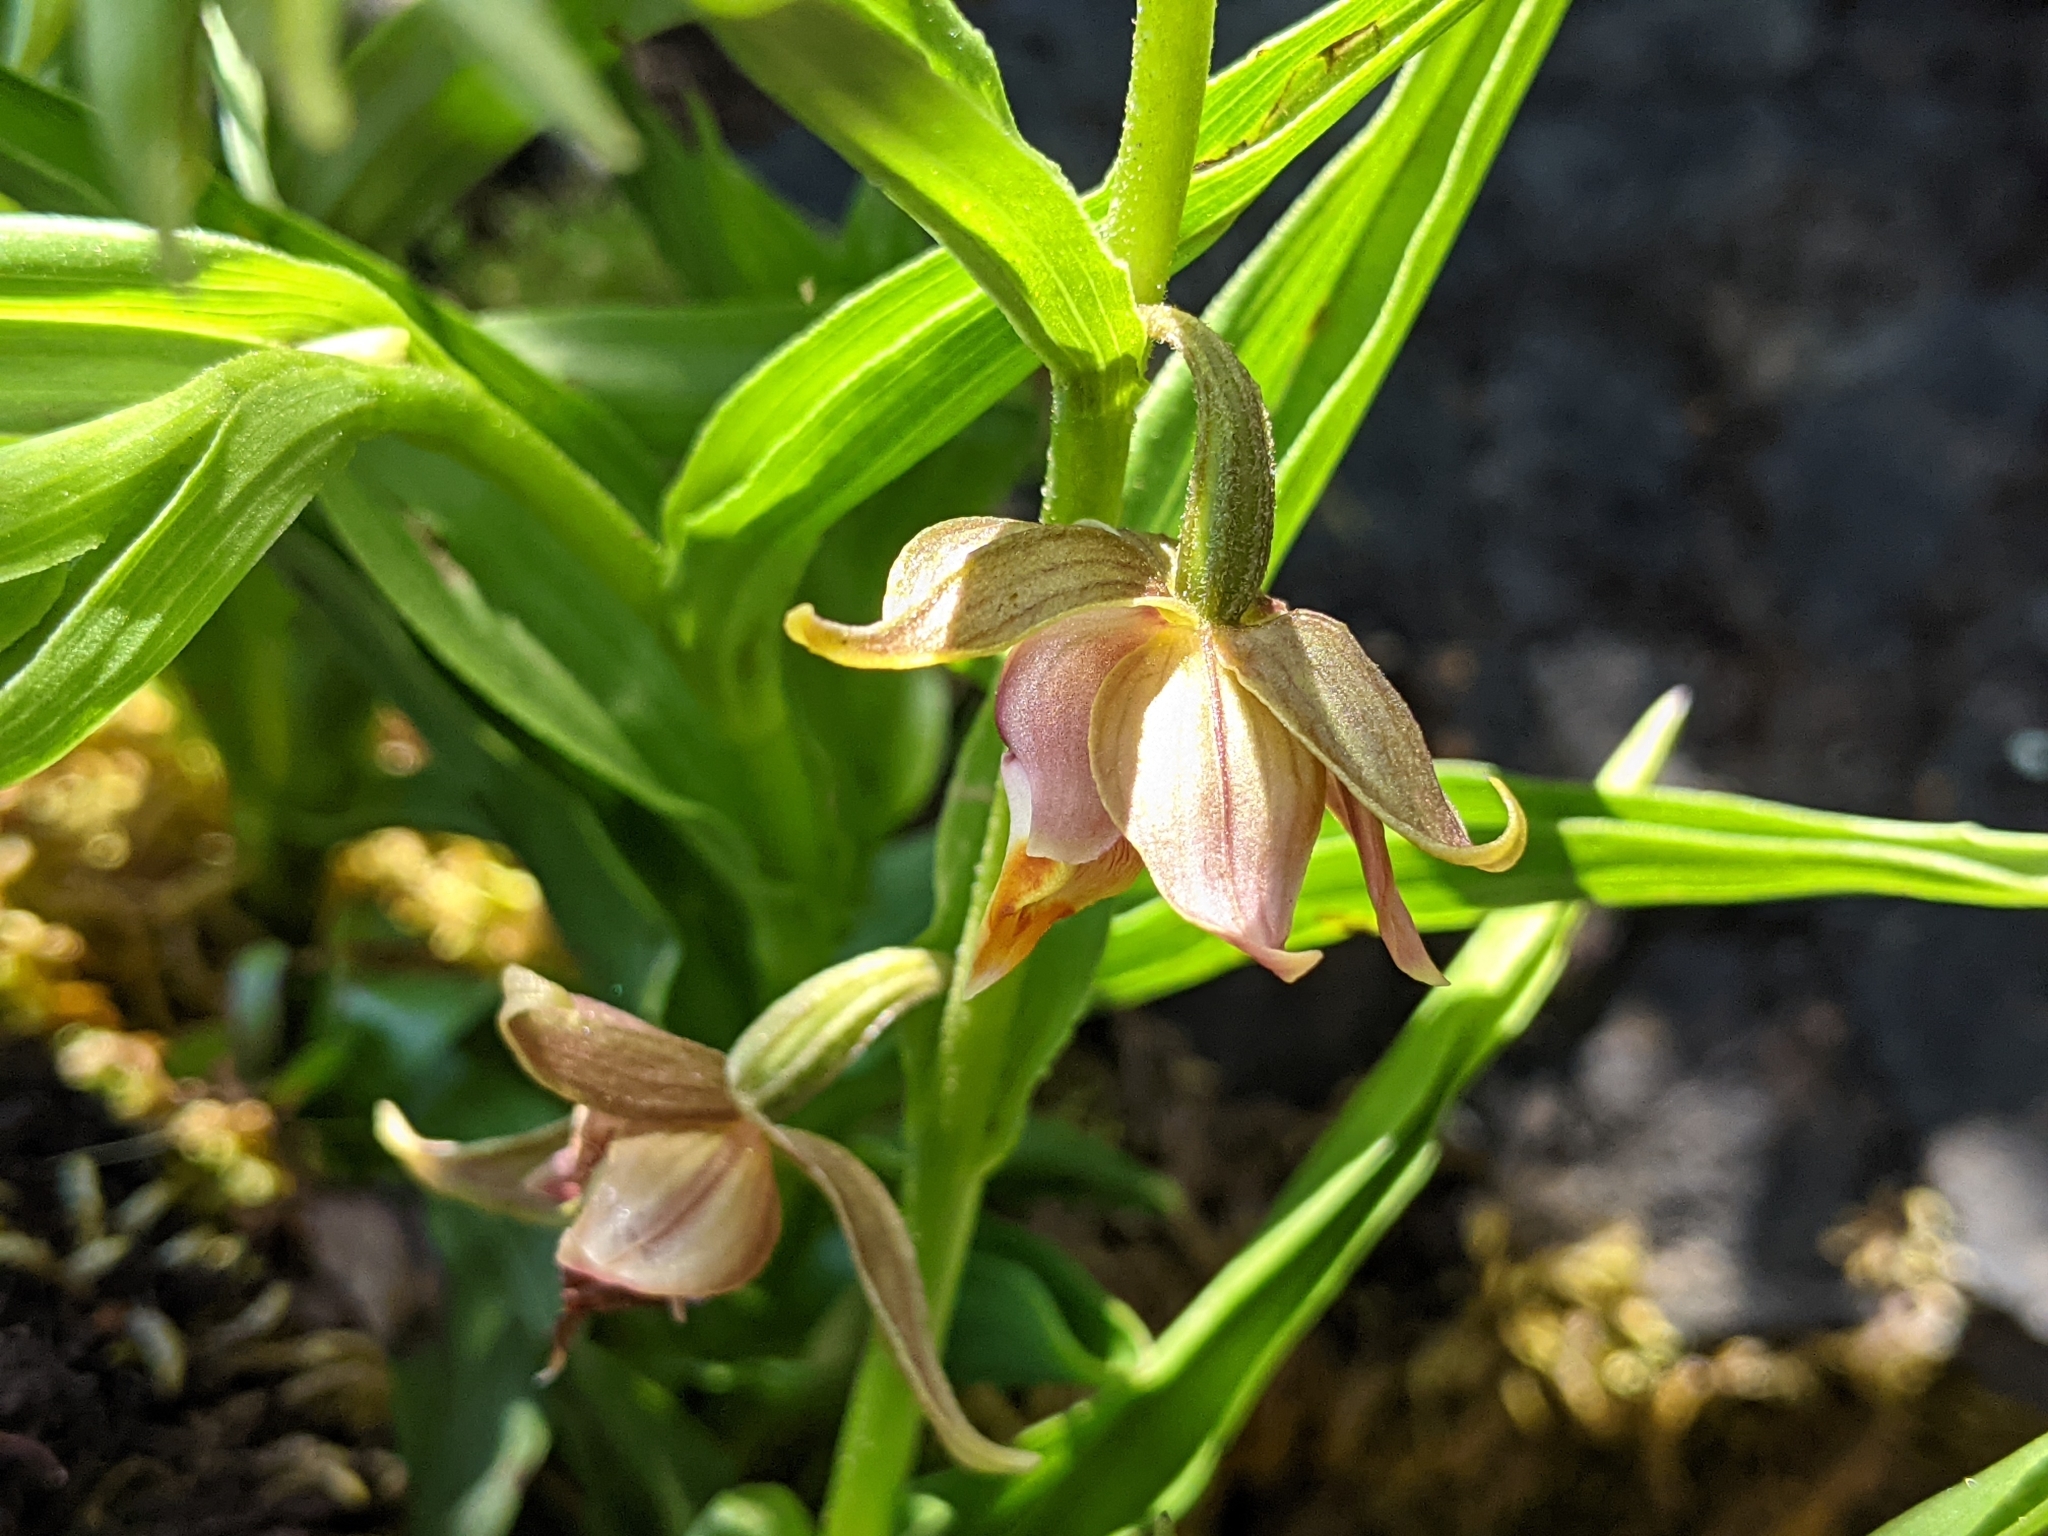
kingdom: Plantae
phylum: Tracheophyta
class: Liliopsida
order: Asparagales
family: Orchidaceae
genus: Epipactis
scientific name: Epipactis gigantea
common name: Chatterbox
